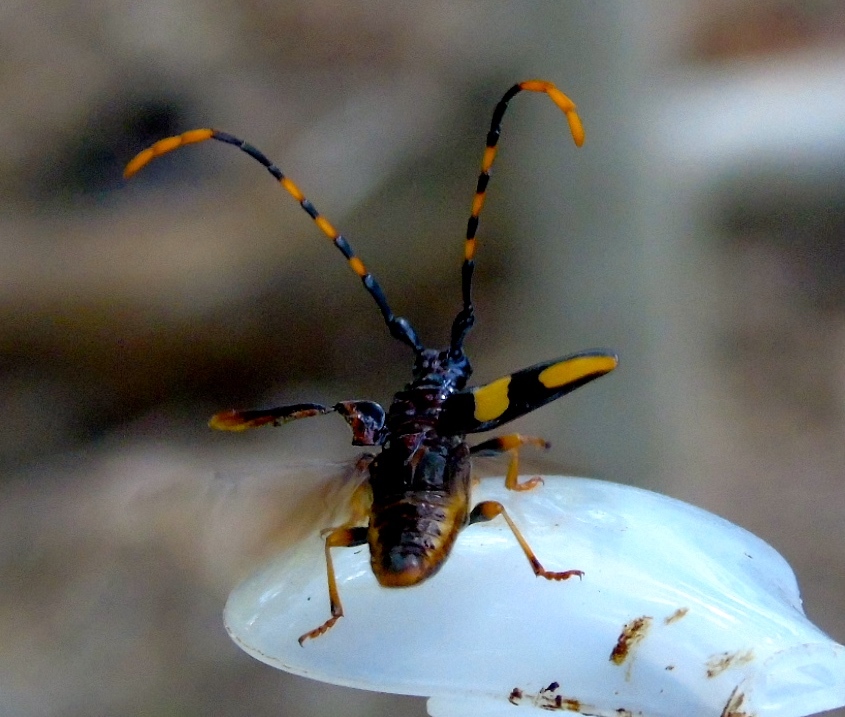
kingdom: Animalia
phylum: Arthropoda
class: Insecta
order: Coleoptera
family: Cerambycidae
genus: Trachyderes
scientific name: Trachyderes mandibularis
